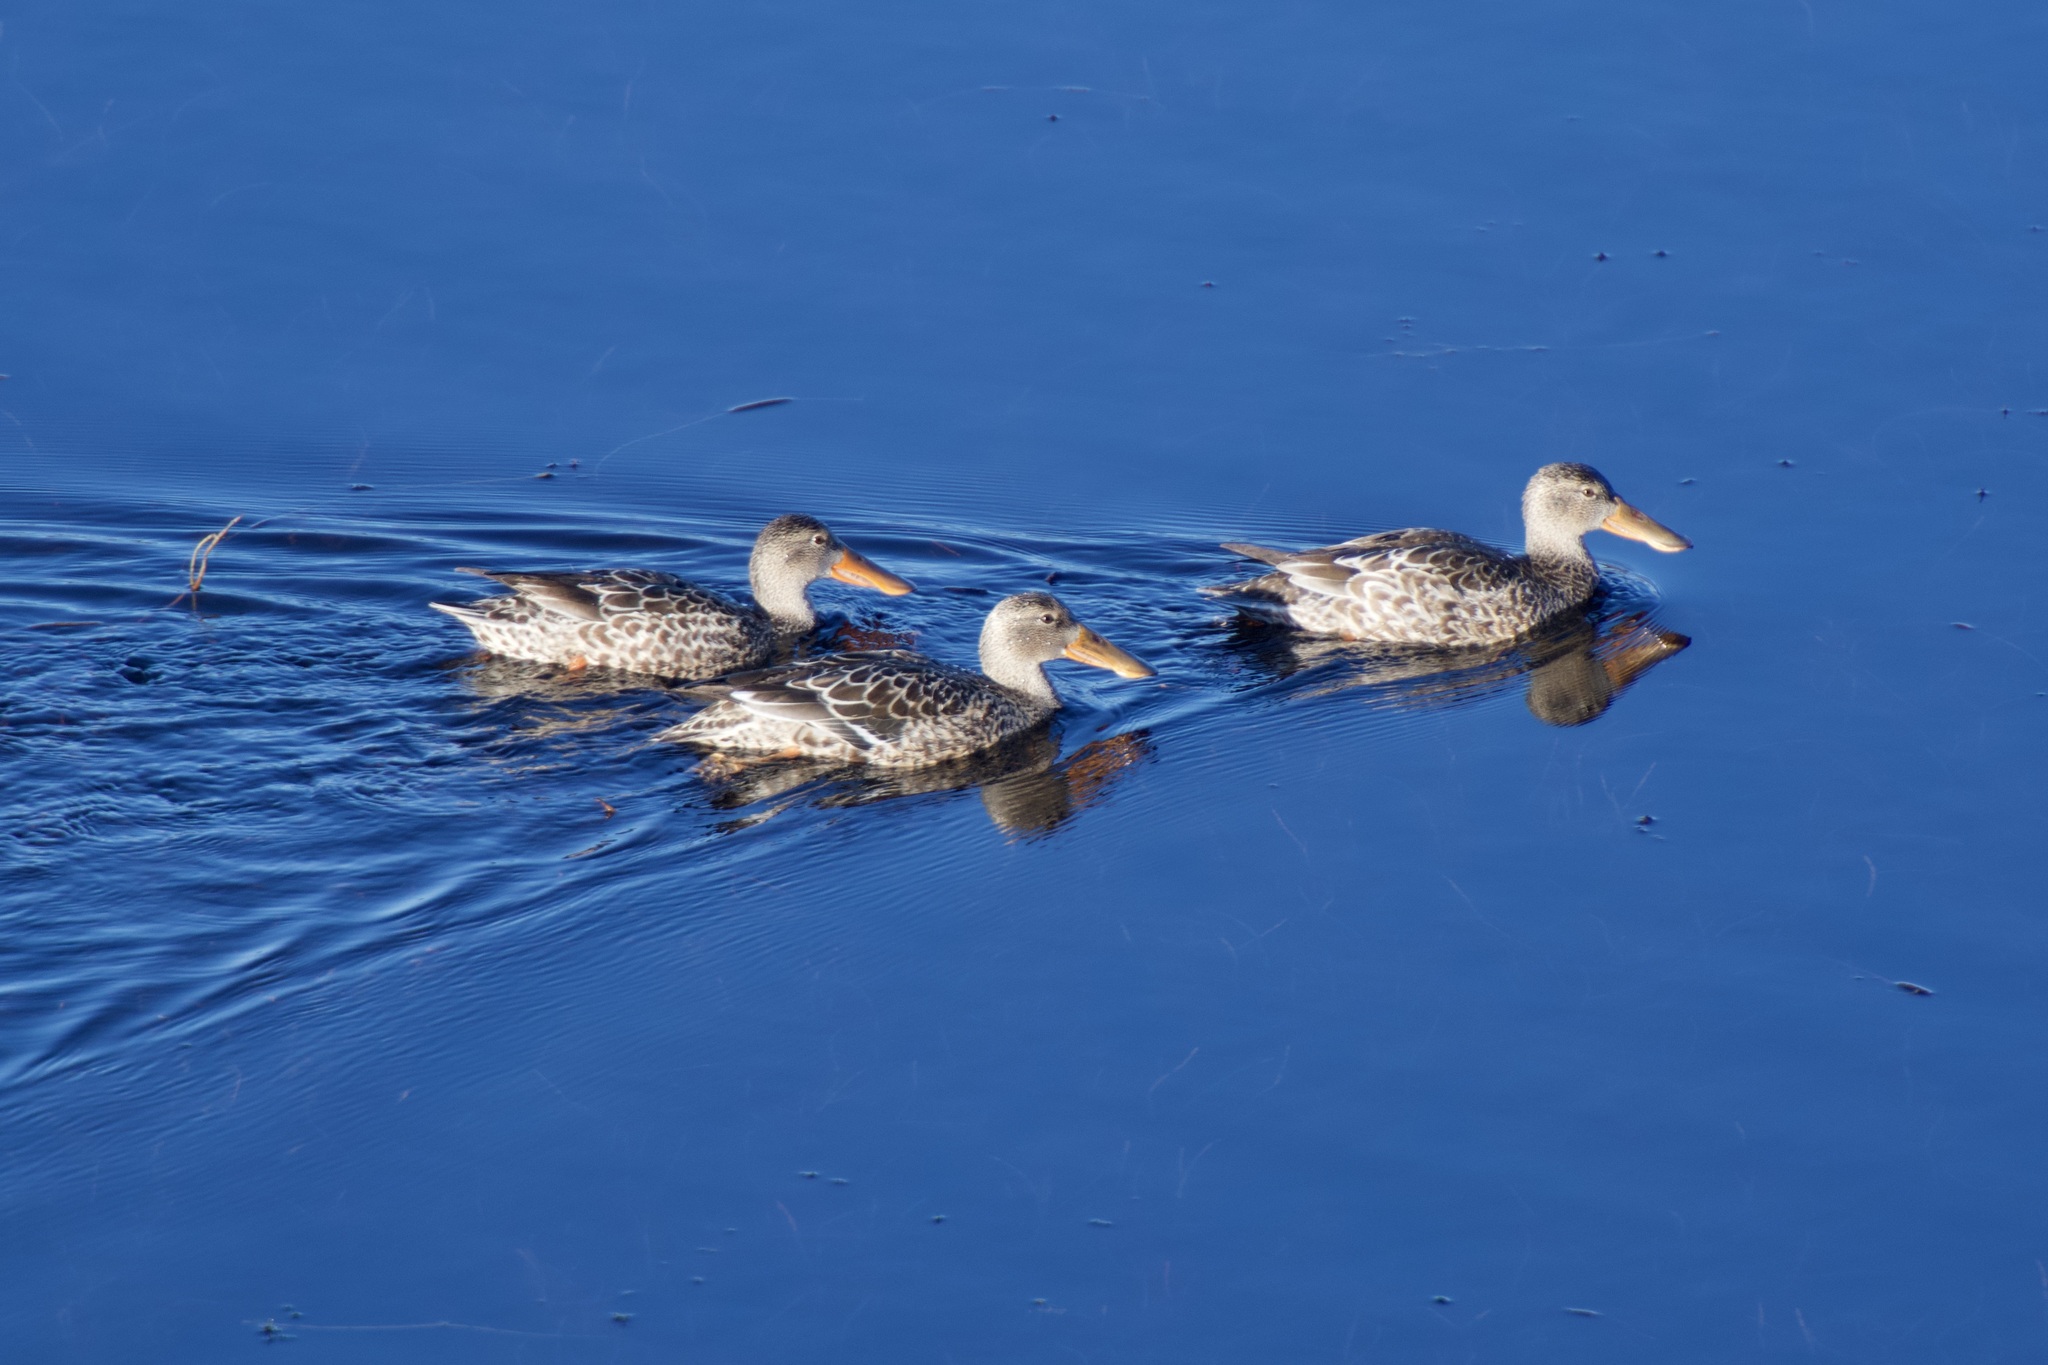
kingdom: Animalia
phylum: Chordata
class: Aves
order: Anseriformes
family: Anatidae
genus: Spatula
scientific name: Spatula clypeata
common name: Northern shoveler
